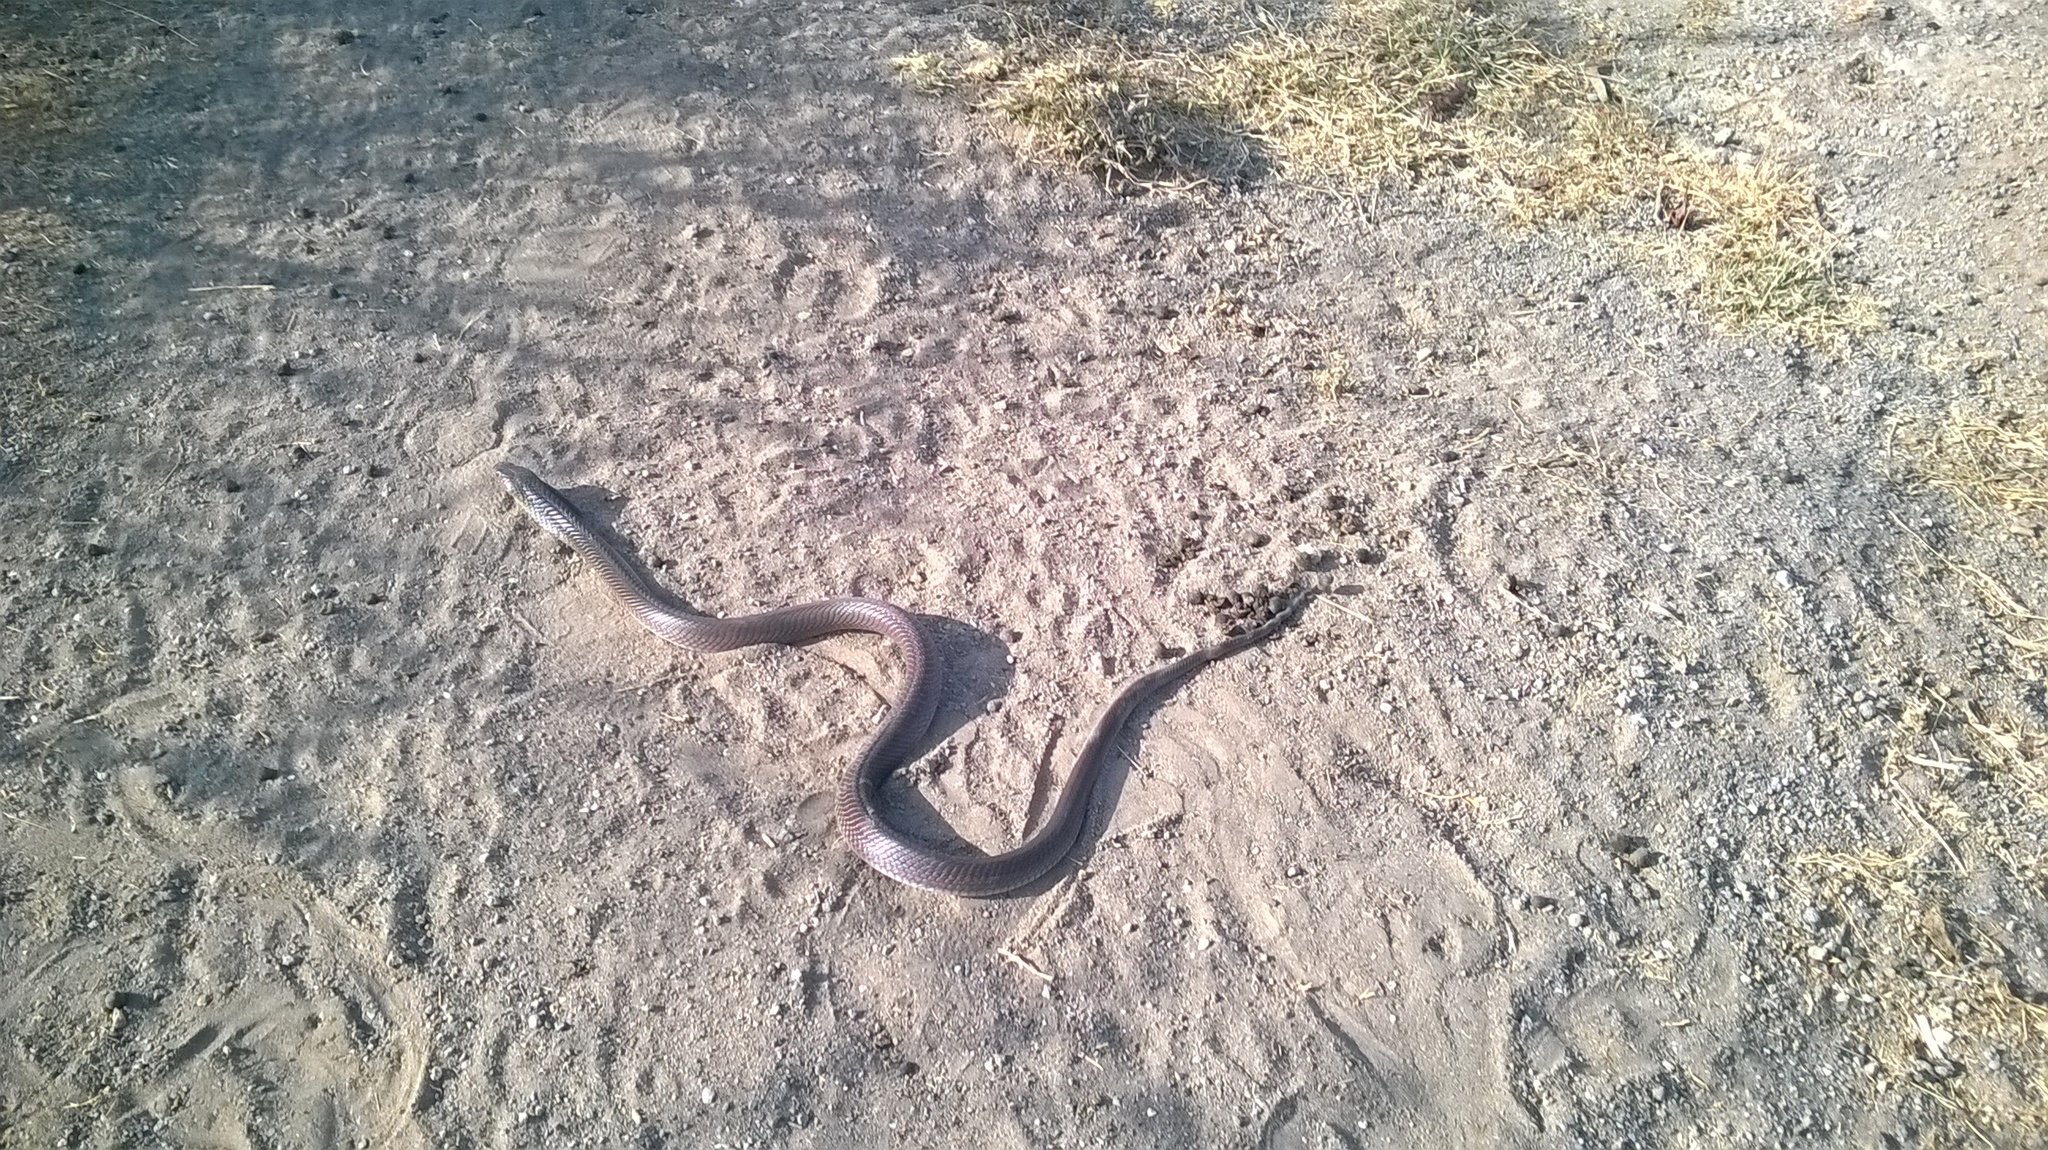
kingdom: Animalia
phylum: Chordata
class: Squamata
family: Elapidae
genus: Naja
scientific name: Naja naja
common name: Indian cobra
